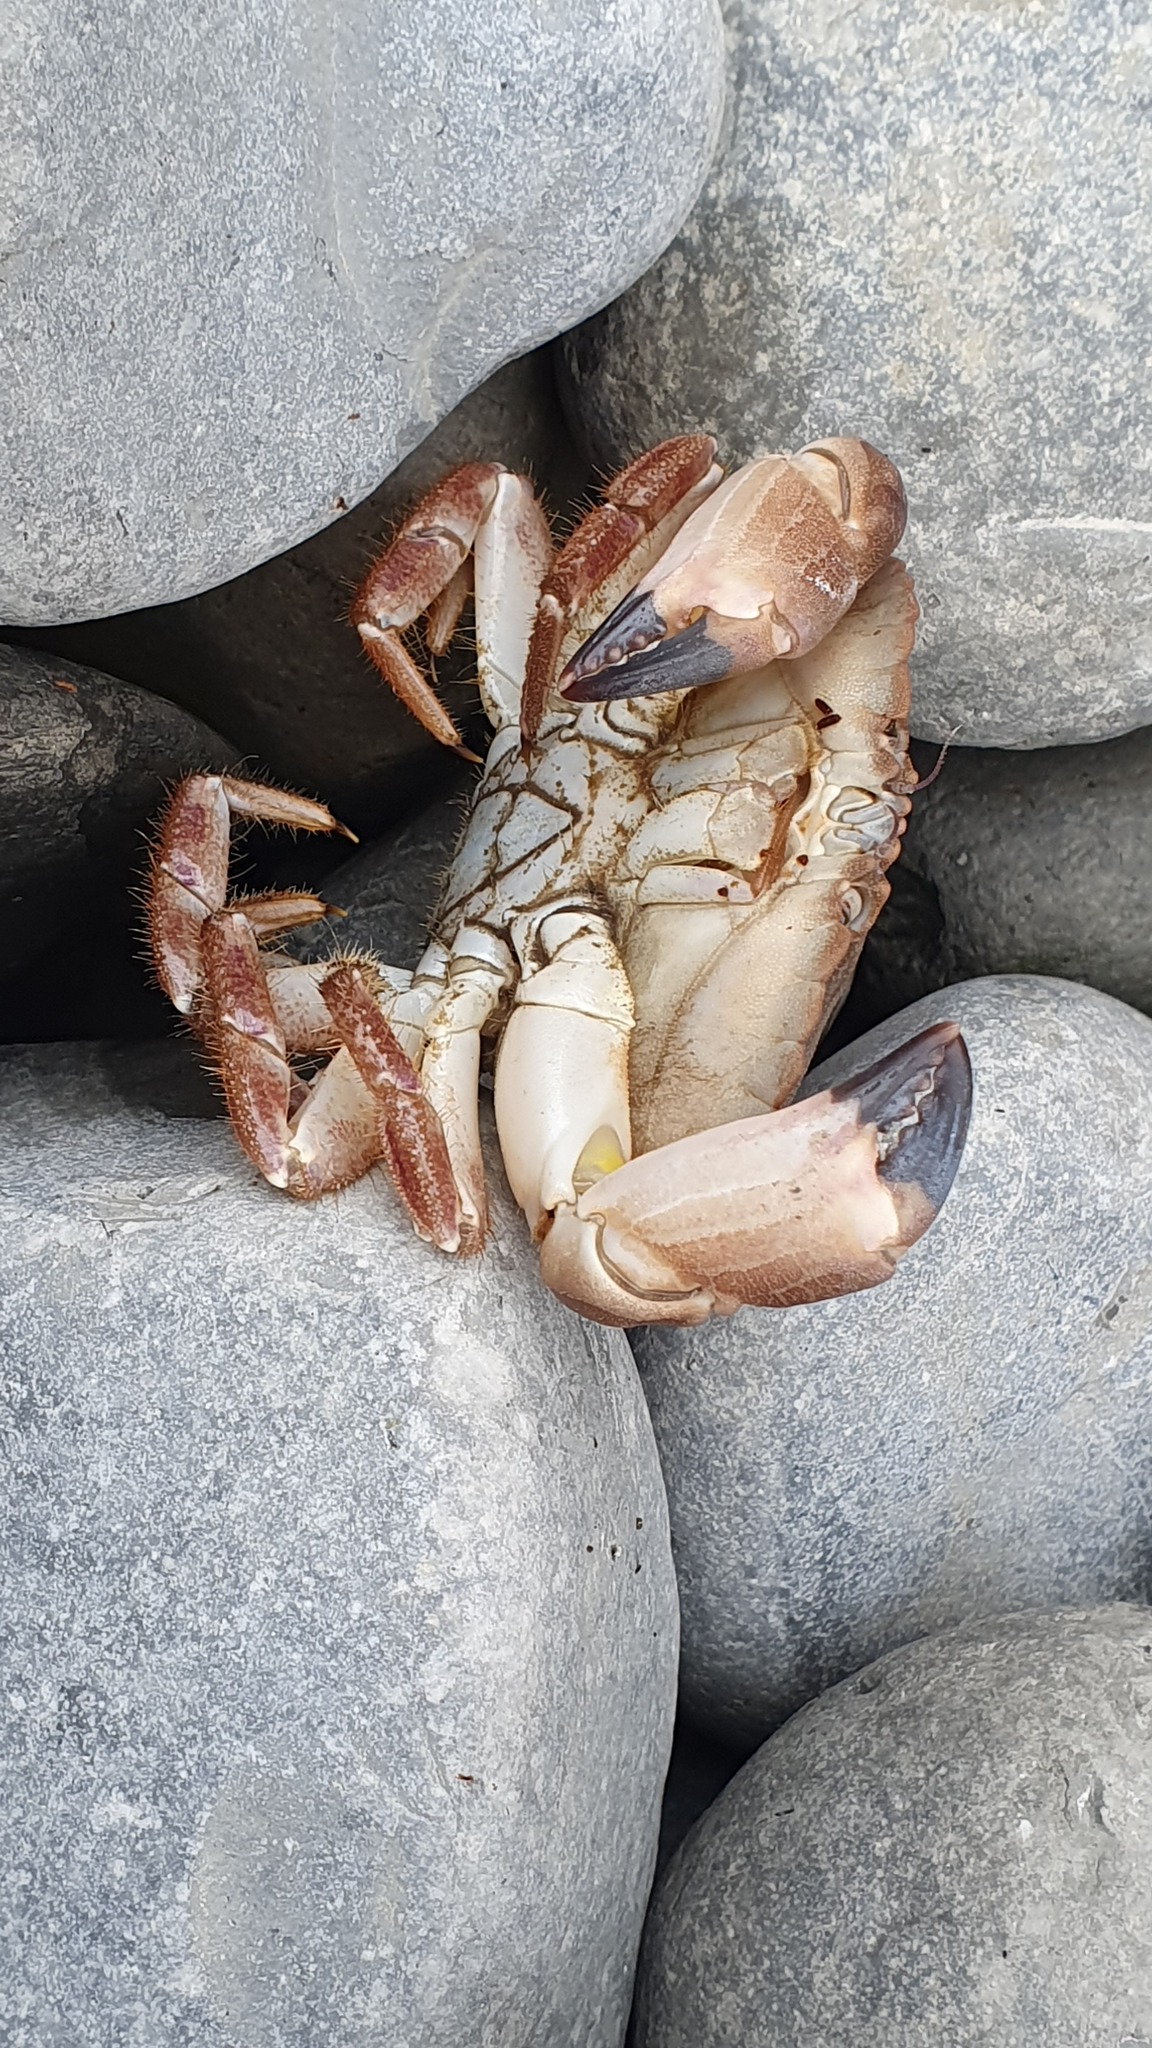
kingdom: Animalia
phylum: Arthropoda
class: Malacostraca
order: Decapoda
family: Cancridae
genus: Cancer
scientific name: Cancer pagurus
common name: Edible crab
